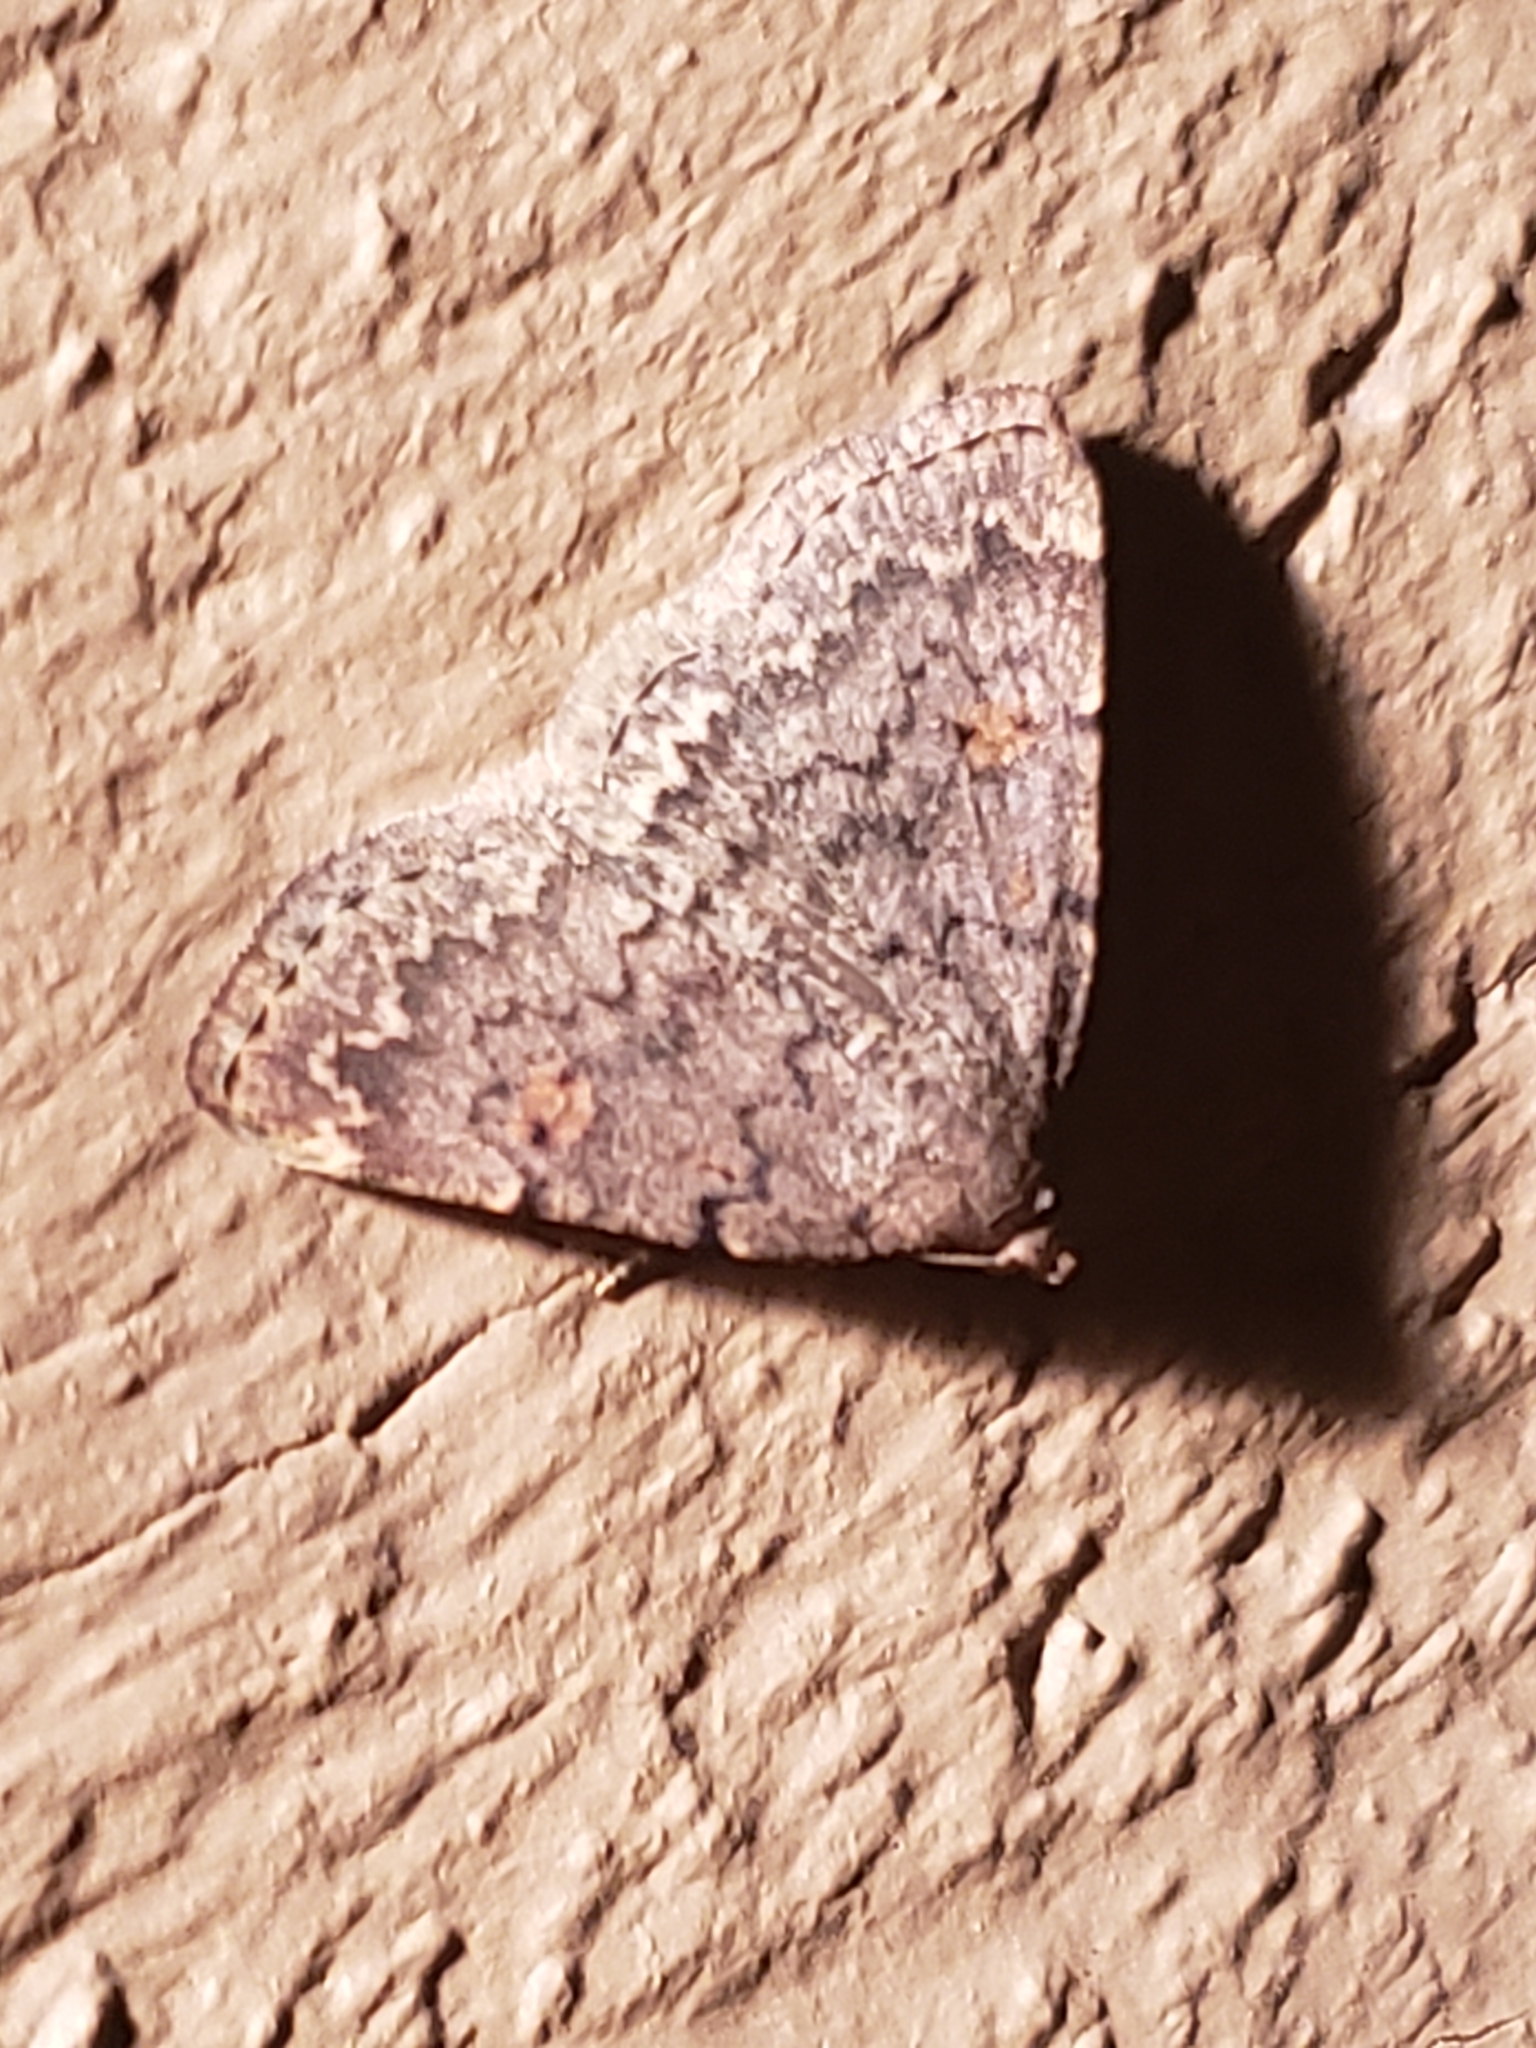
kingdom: Animalia
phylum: Arthropoda
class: Insecta
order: Lepidoptera
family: Erebidae
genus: Idia
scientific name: Idia aemula
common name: Common idia moth
